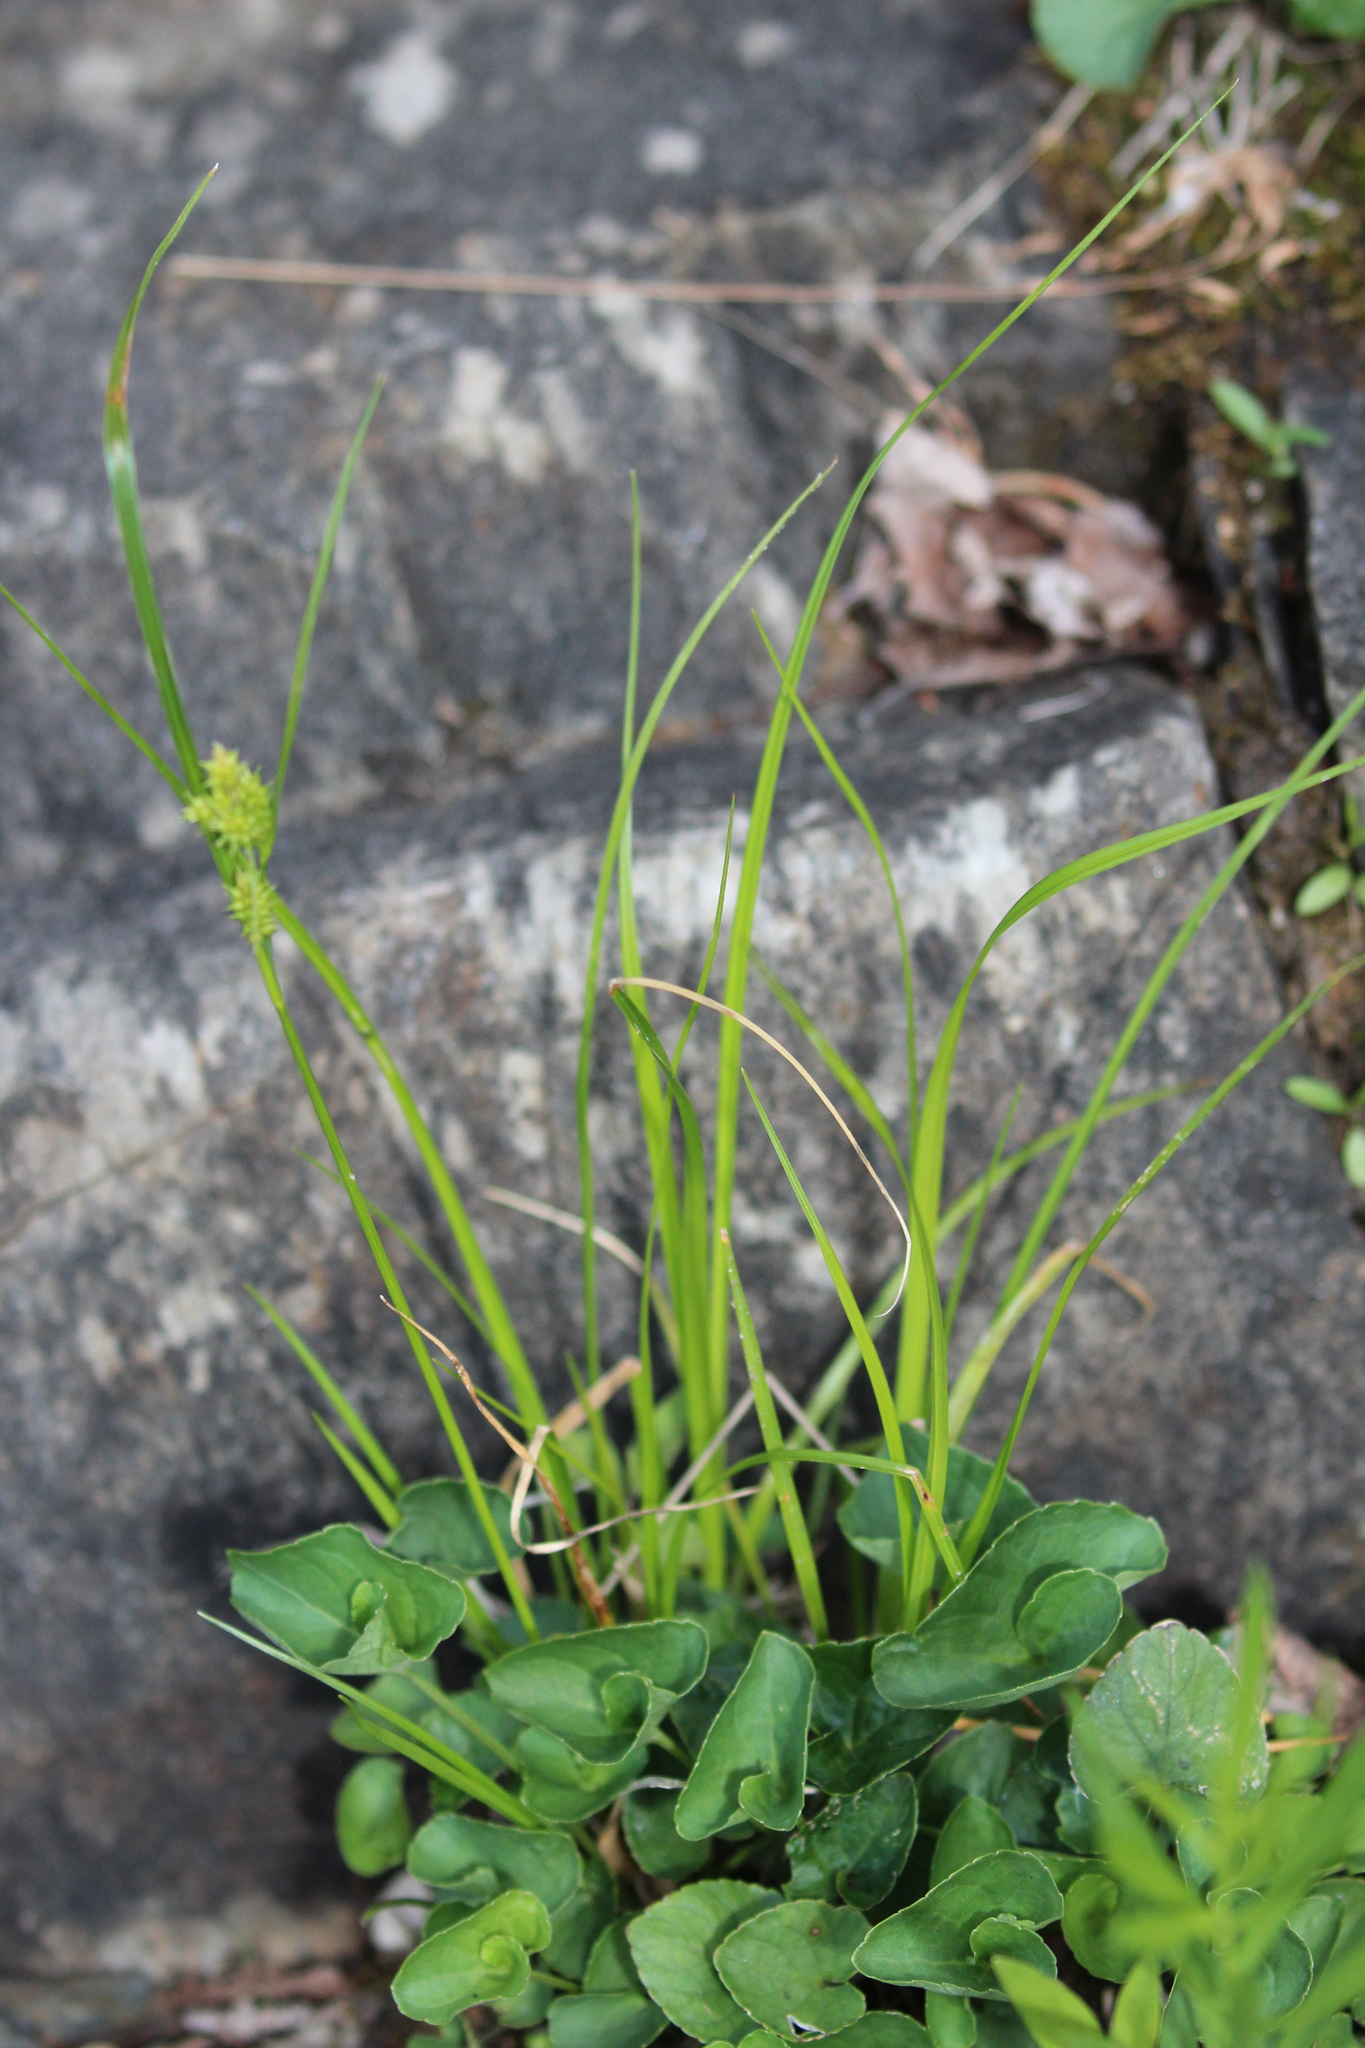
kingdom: Plantae
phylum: Tracheophyta
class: Liliopsida
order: Poales
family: Cyperaceae
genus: Carex
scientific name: Carex
